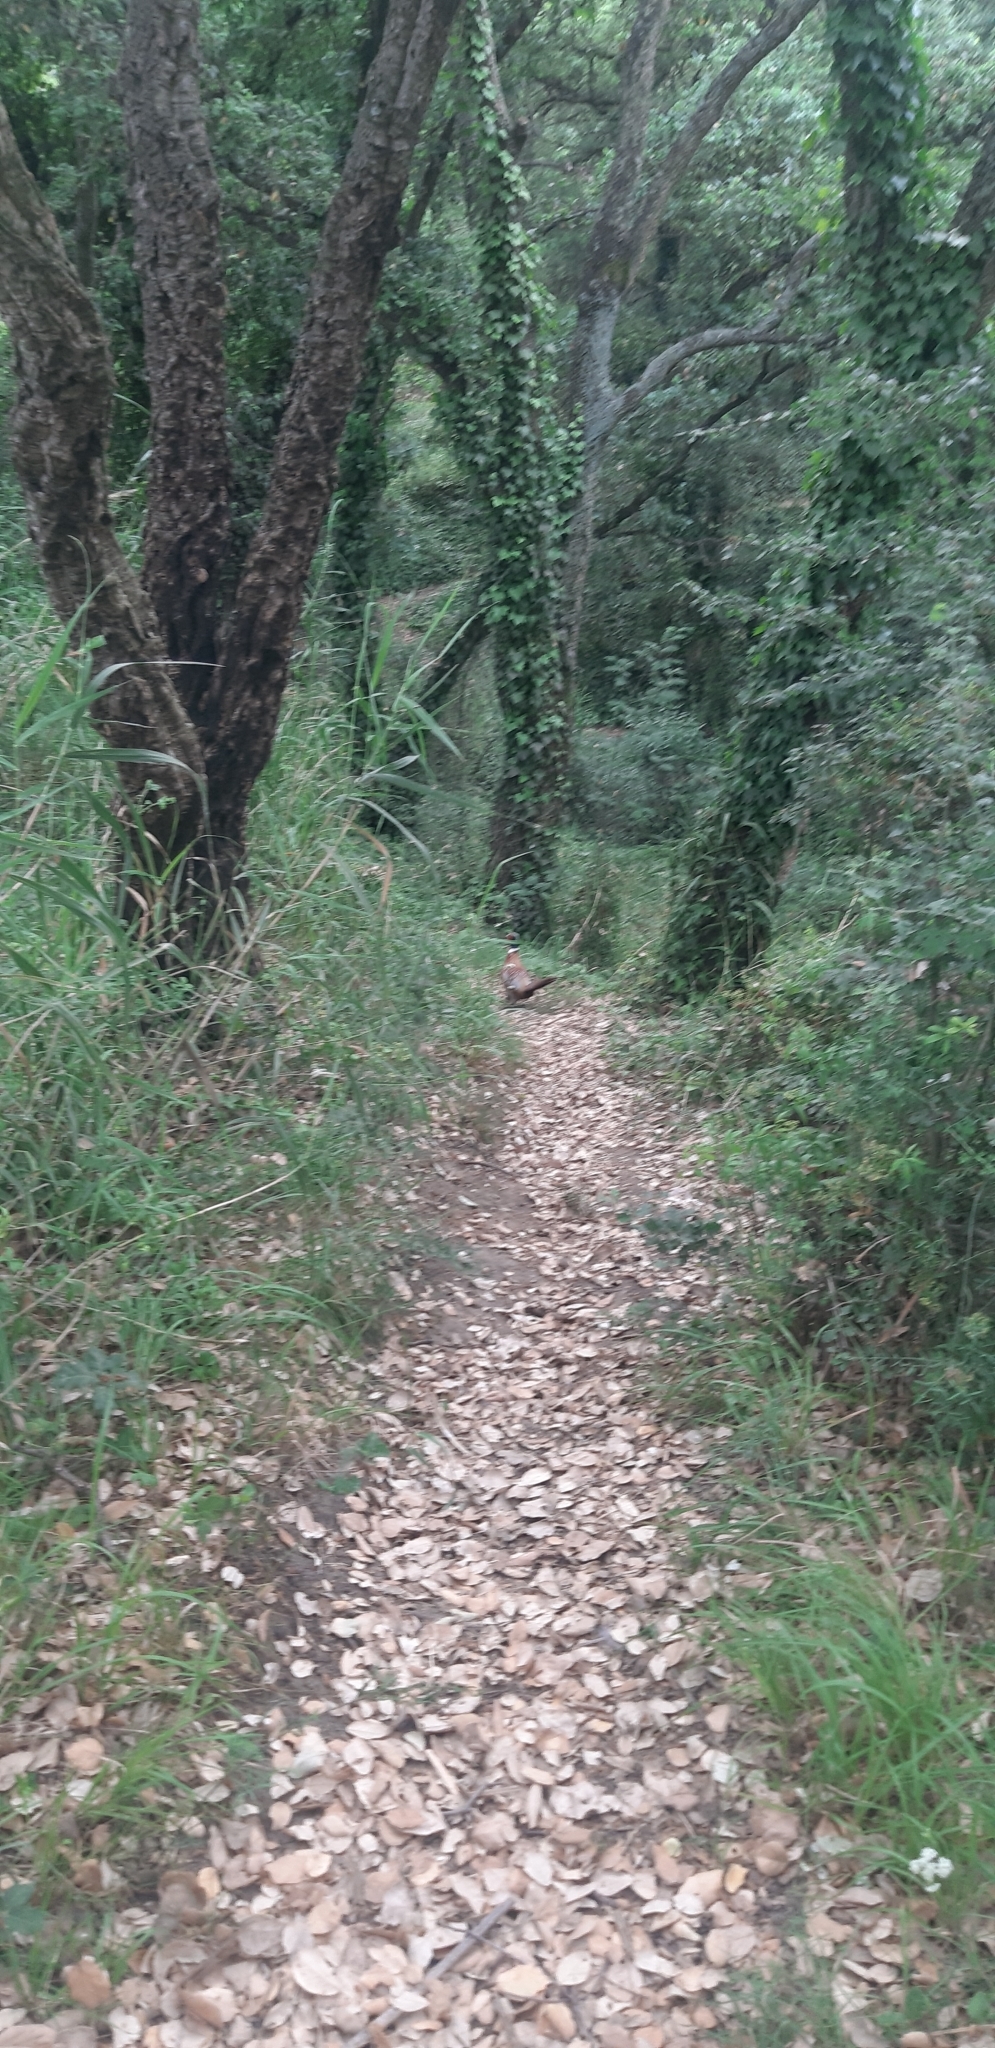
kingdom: Animalia
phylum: Chordata
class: Aves
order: Galliformes
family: Phasianidae
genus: Phasianus
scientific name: Phasianus colchicus
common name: Common pheasant
